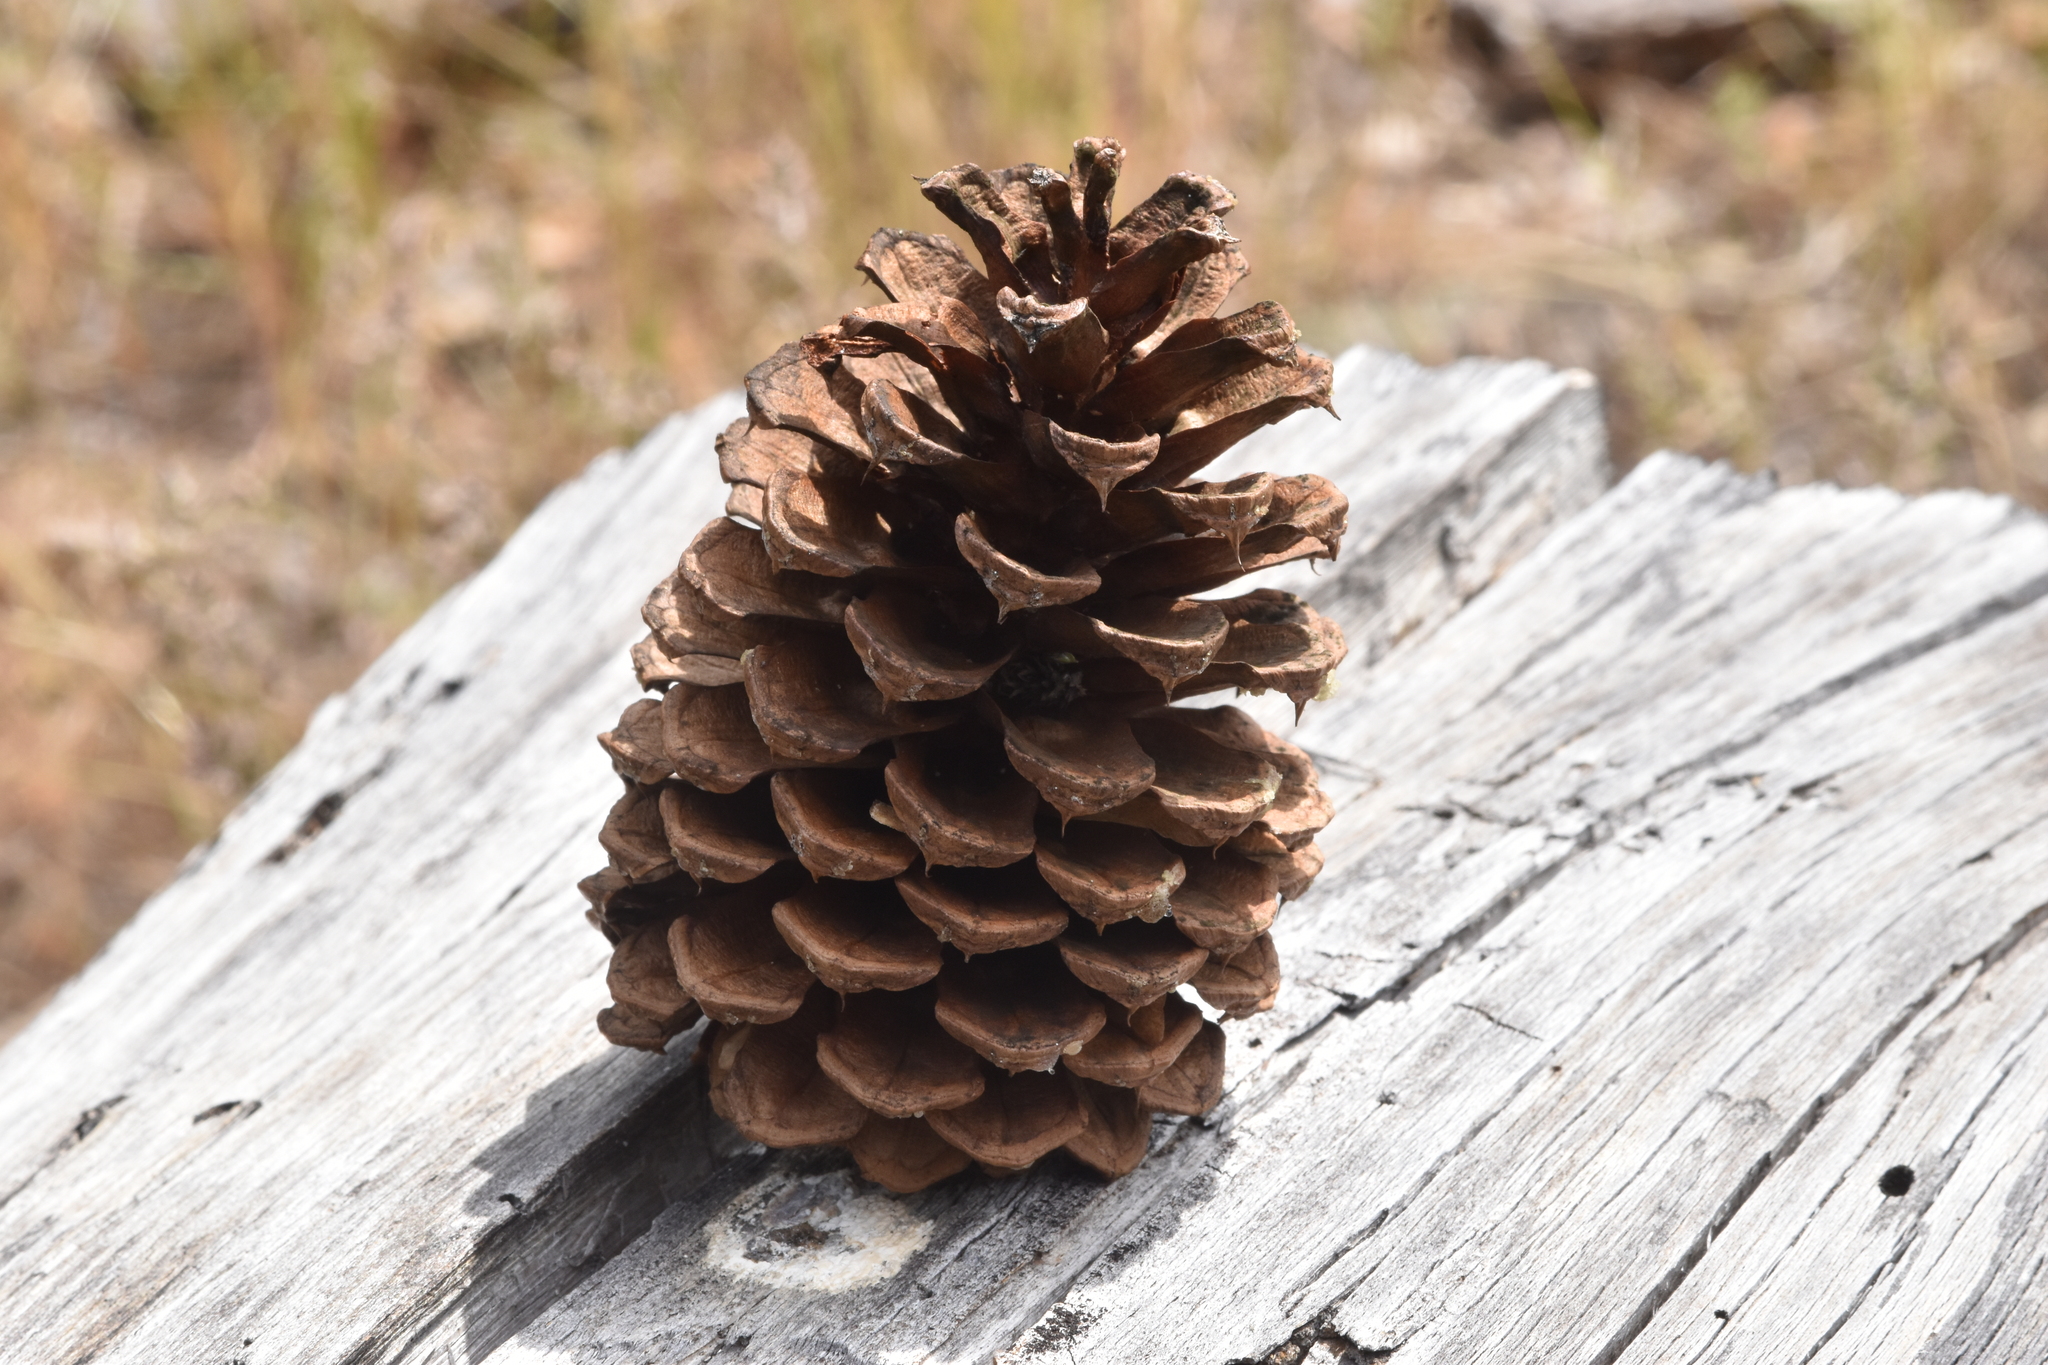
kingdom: Plantae
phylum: Tracheophyta
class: Pinopsida
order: Pinales
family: Pinaceae
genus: Pinus
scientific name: Pinus ponderosa
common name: Western yellow-pine
